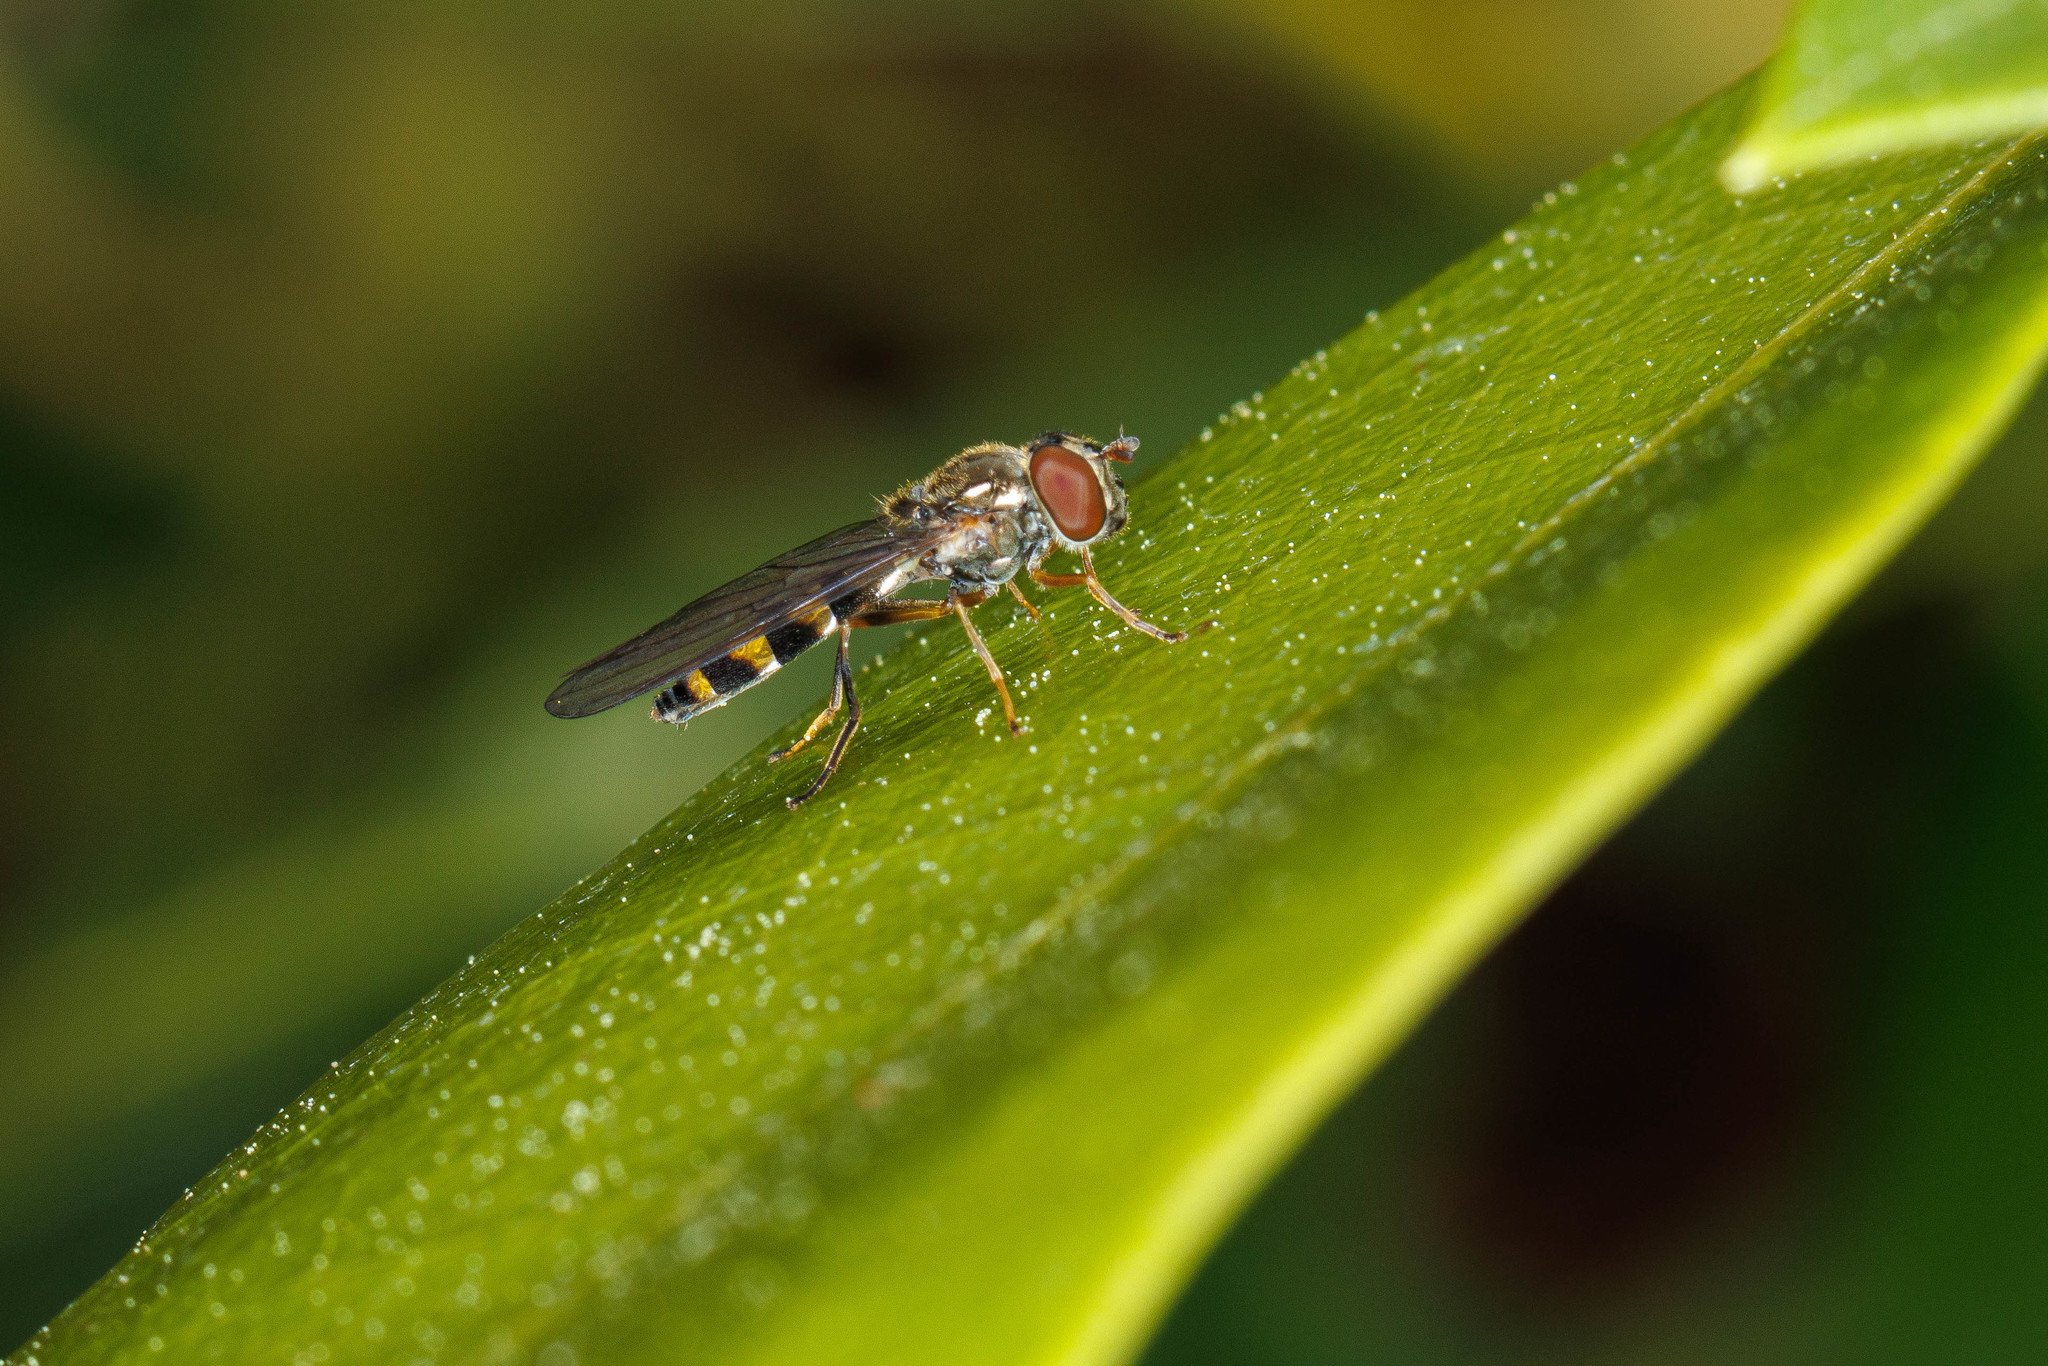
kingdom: Animalia
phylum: Arthropoda
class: Insecta
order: Diptera
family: Syrphidae
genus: Melanostoma
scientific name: Melanostoma mellina
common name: Hover fly
